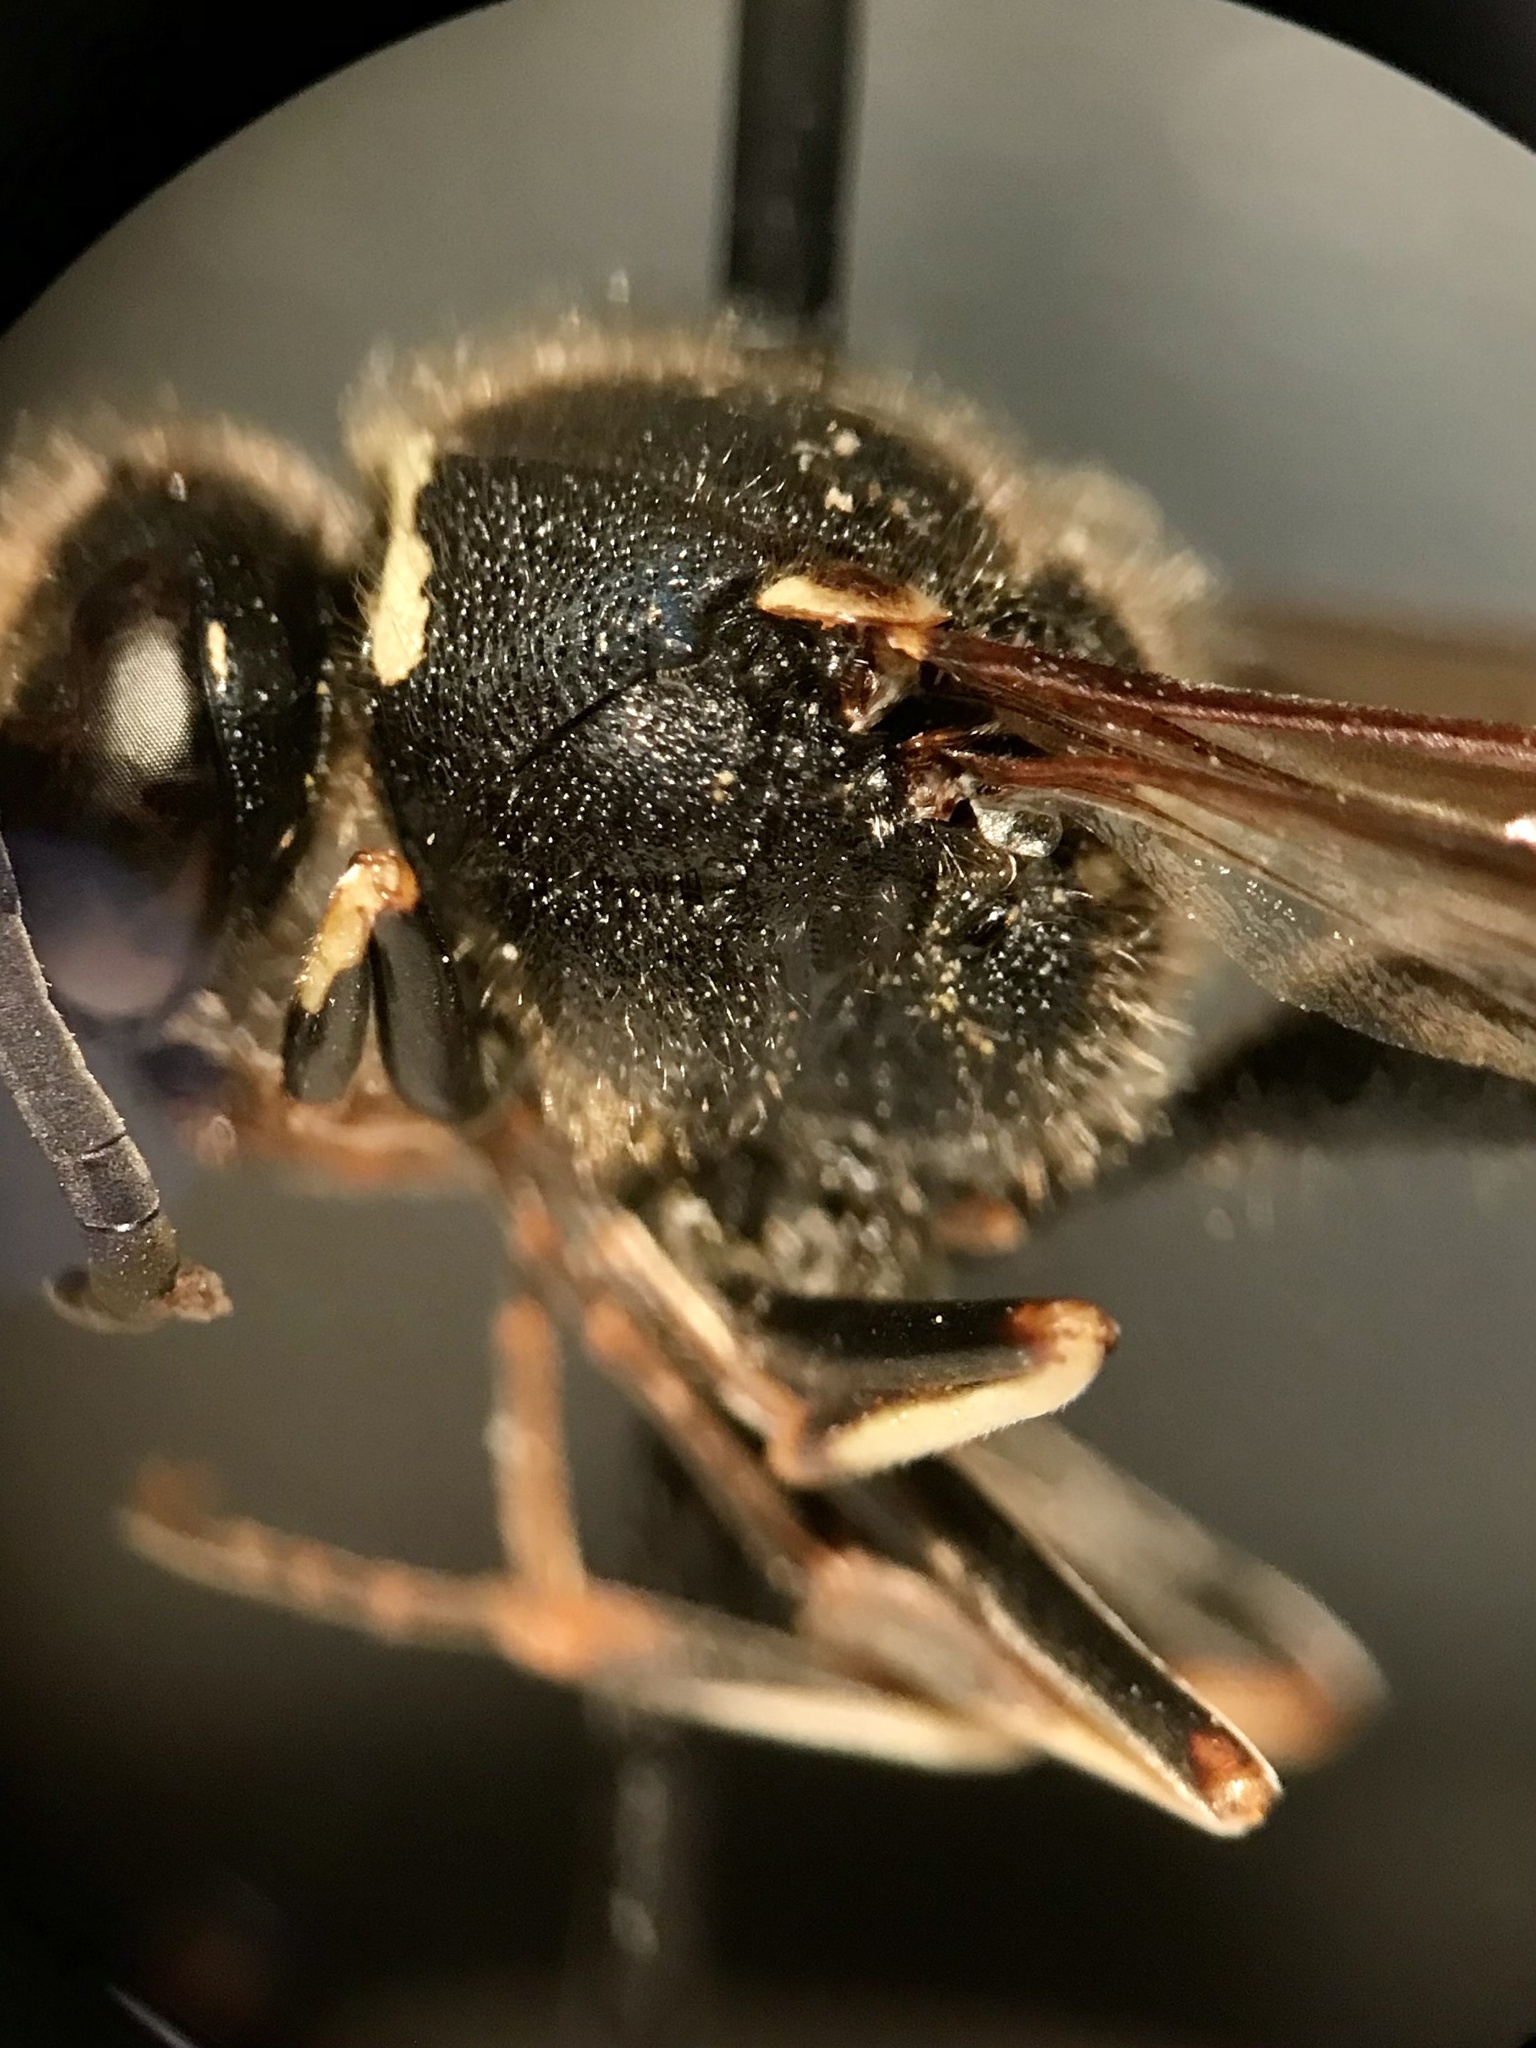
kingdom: Animalia
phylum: Arthropoda
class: Insecta
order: Hymenoptera
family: Vespidae
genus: Eumenes
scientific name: Eumenes crucifera
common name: Cross potter wasp
